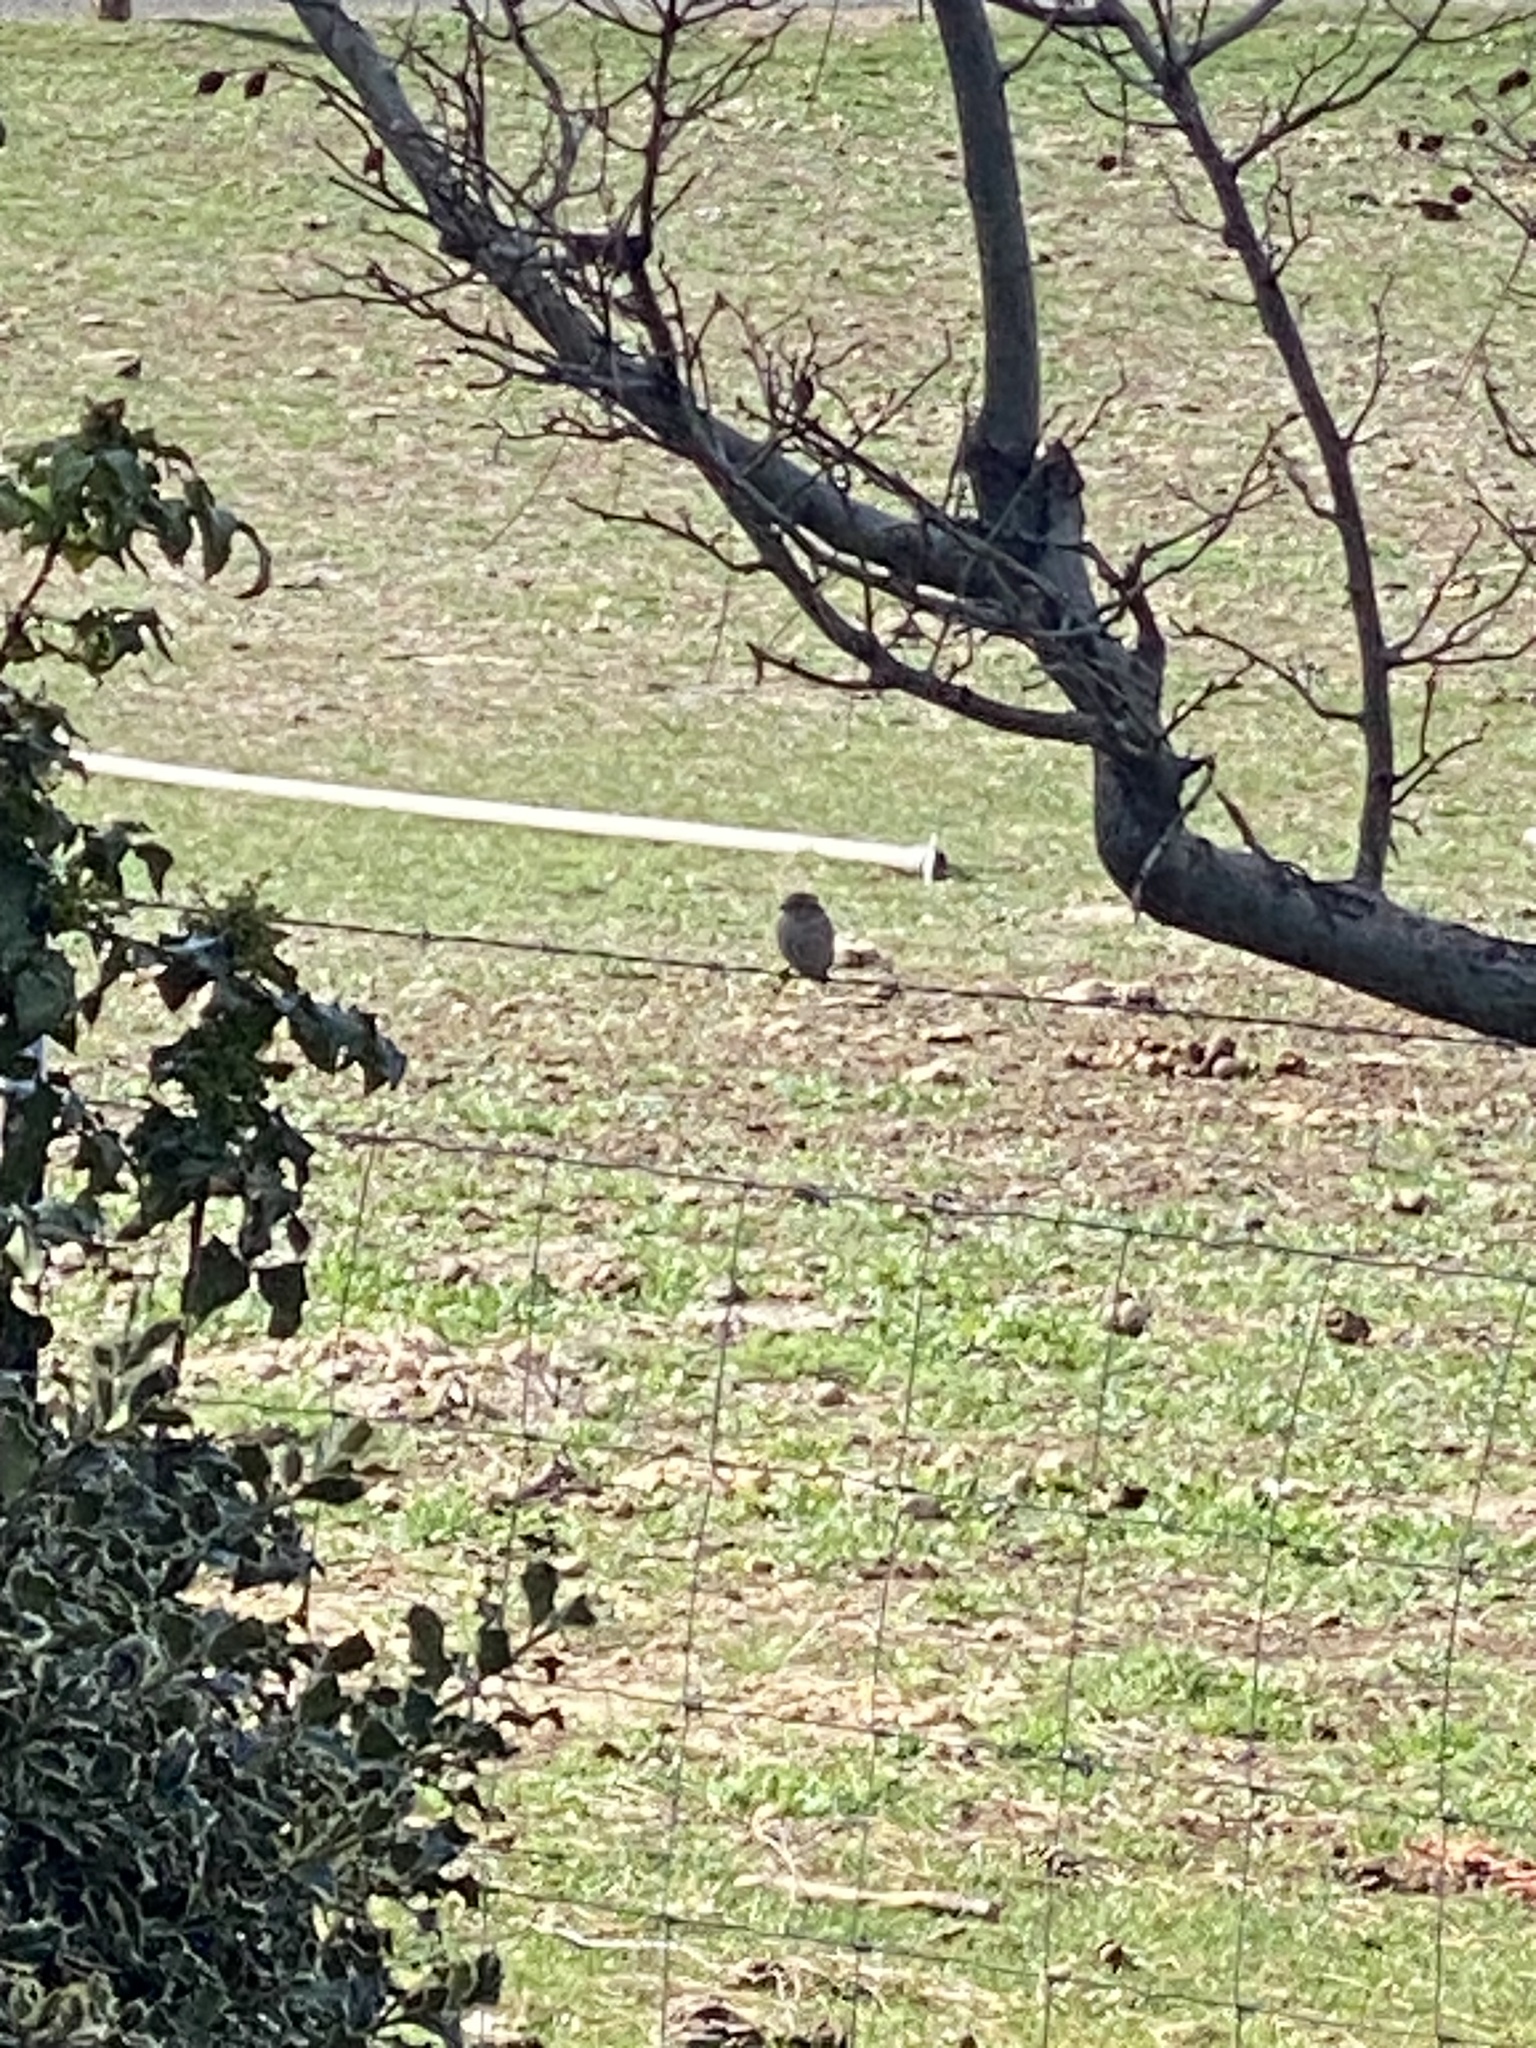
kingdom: Animalia
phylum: Chordata
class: Aves
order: Passeriformes
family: Passeridae
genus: Passer
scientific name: Passer domesticus
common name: House sparrow
